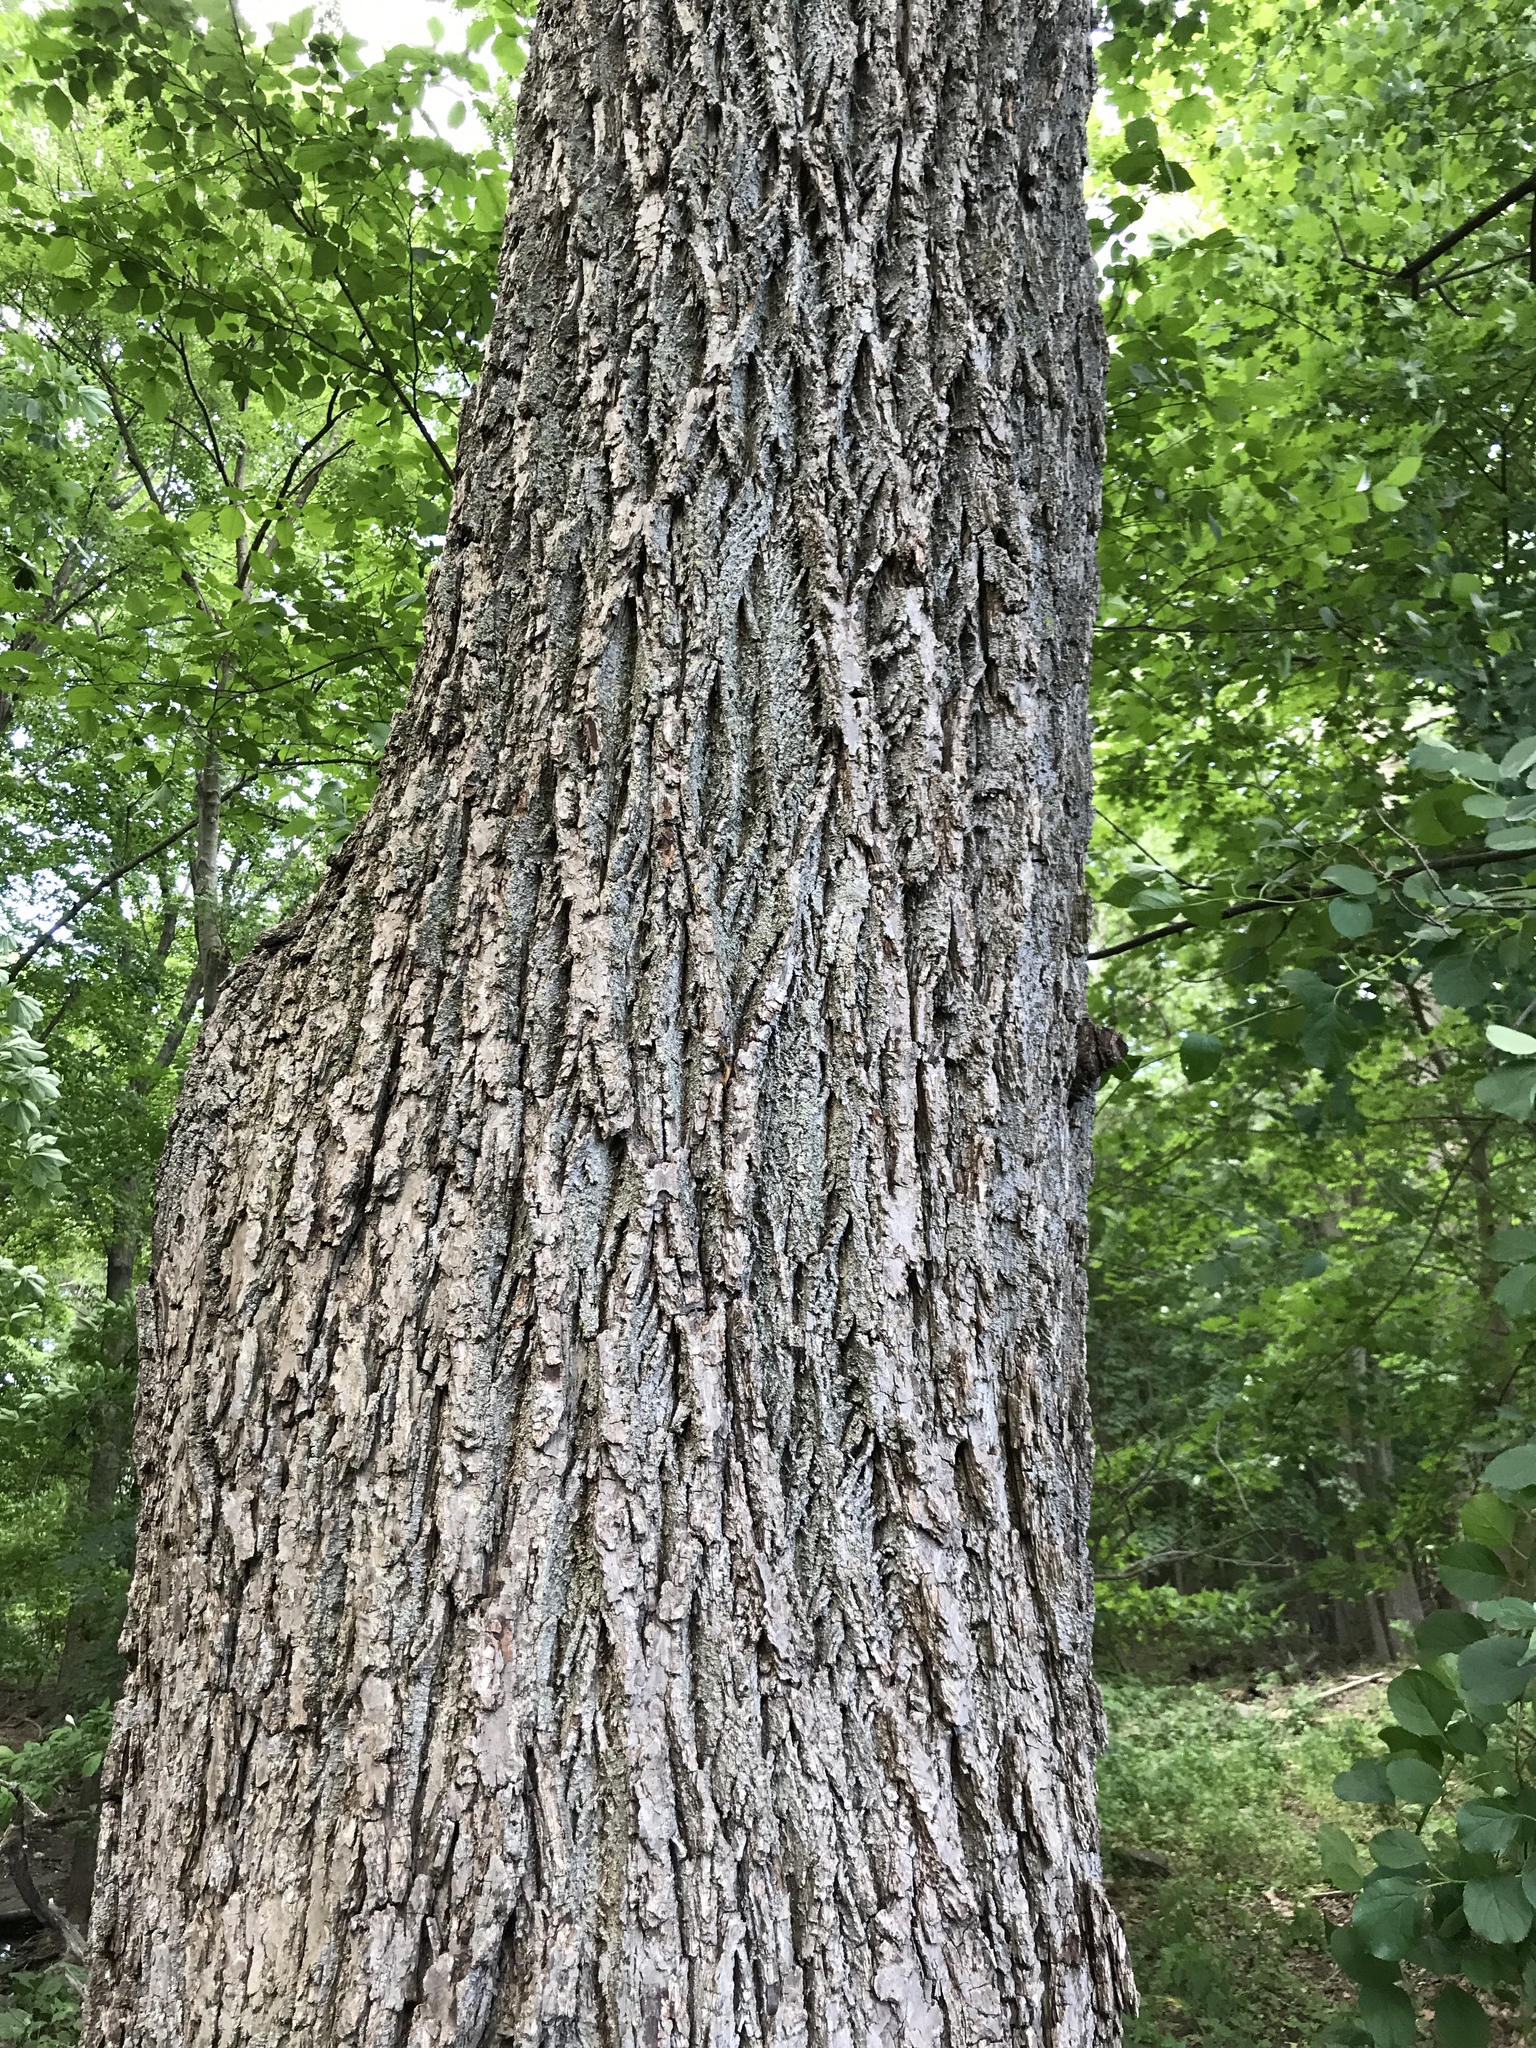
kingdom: Plantae
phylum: Tracheophyta
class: Magnoliopsida
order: Fagales
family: Juglandaceae
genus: Juglans
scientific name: Juglans nigra
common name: Black walnut
